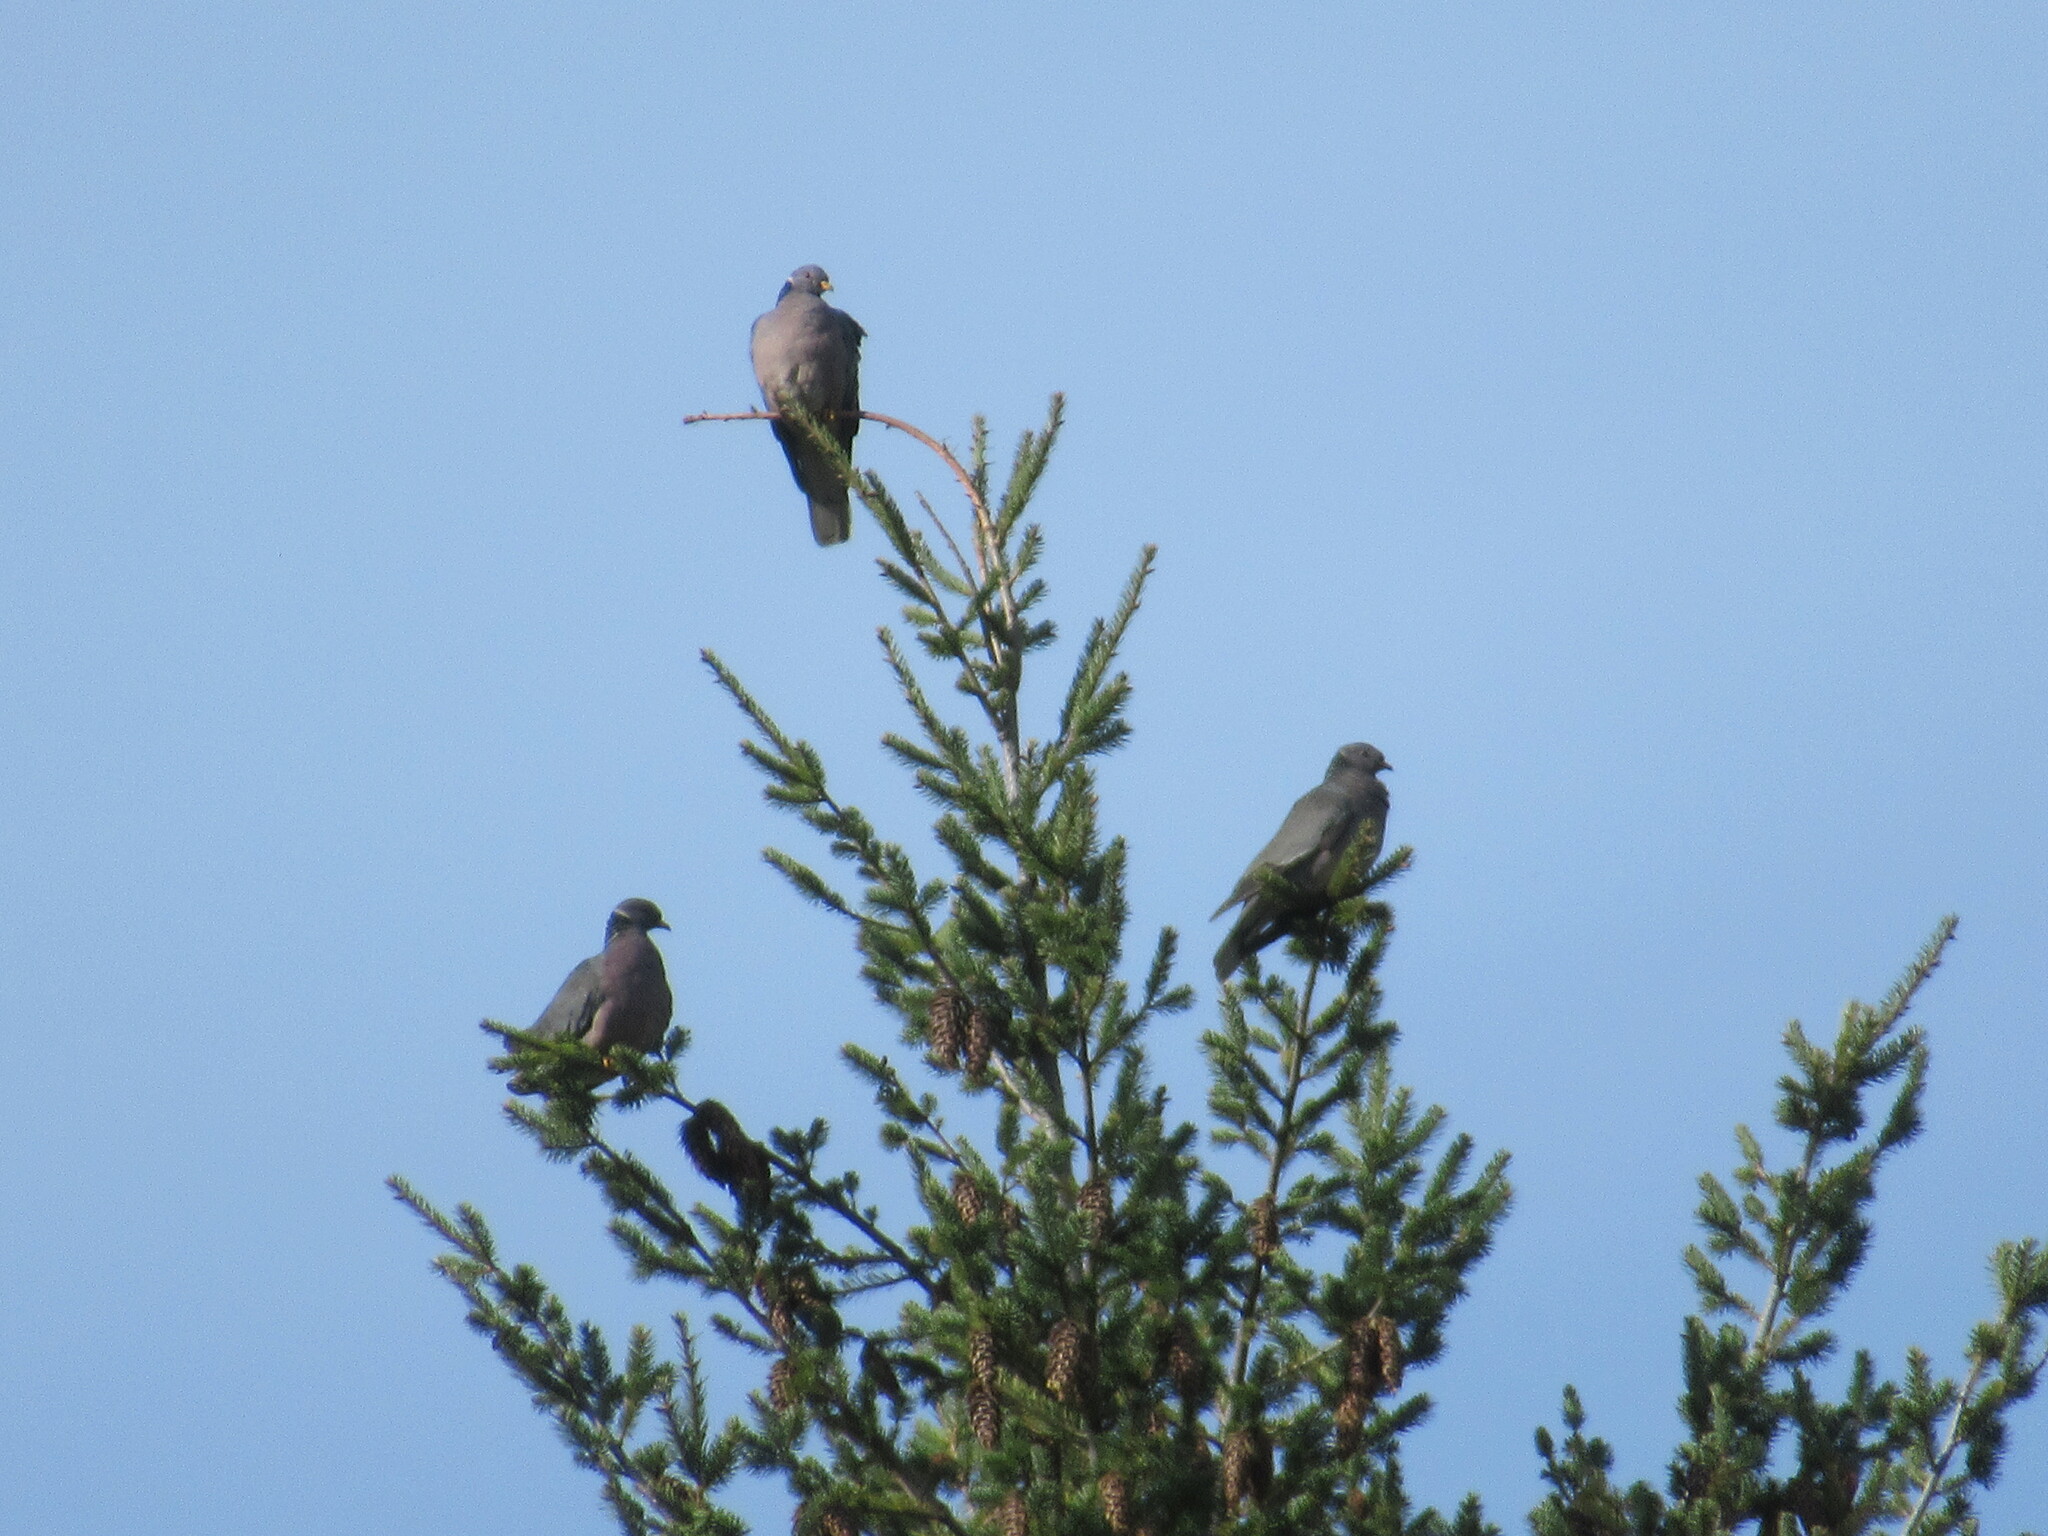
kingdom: Animalia
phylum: Chordata
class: Aves
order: Columbiformes
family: Columbidae
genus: Patagioenas
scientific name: Patagioenas fasciata
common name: Band-tailed pigeon
